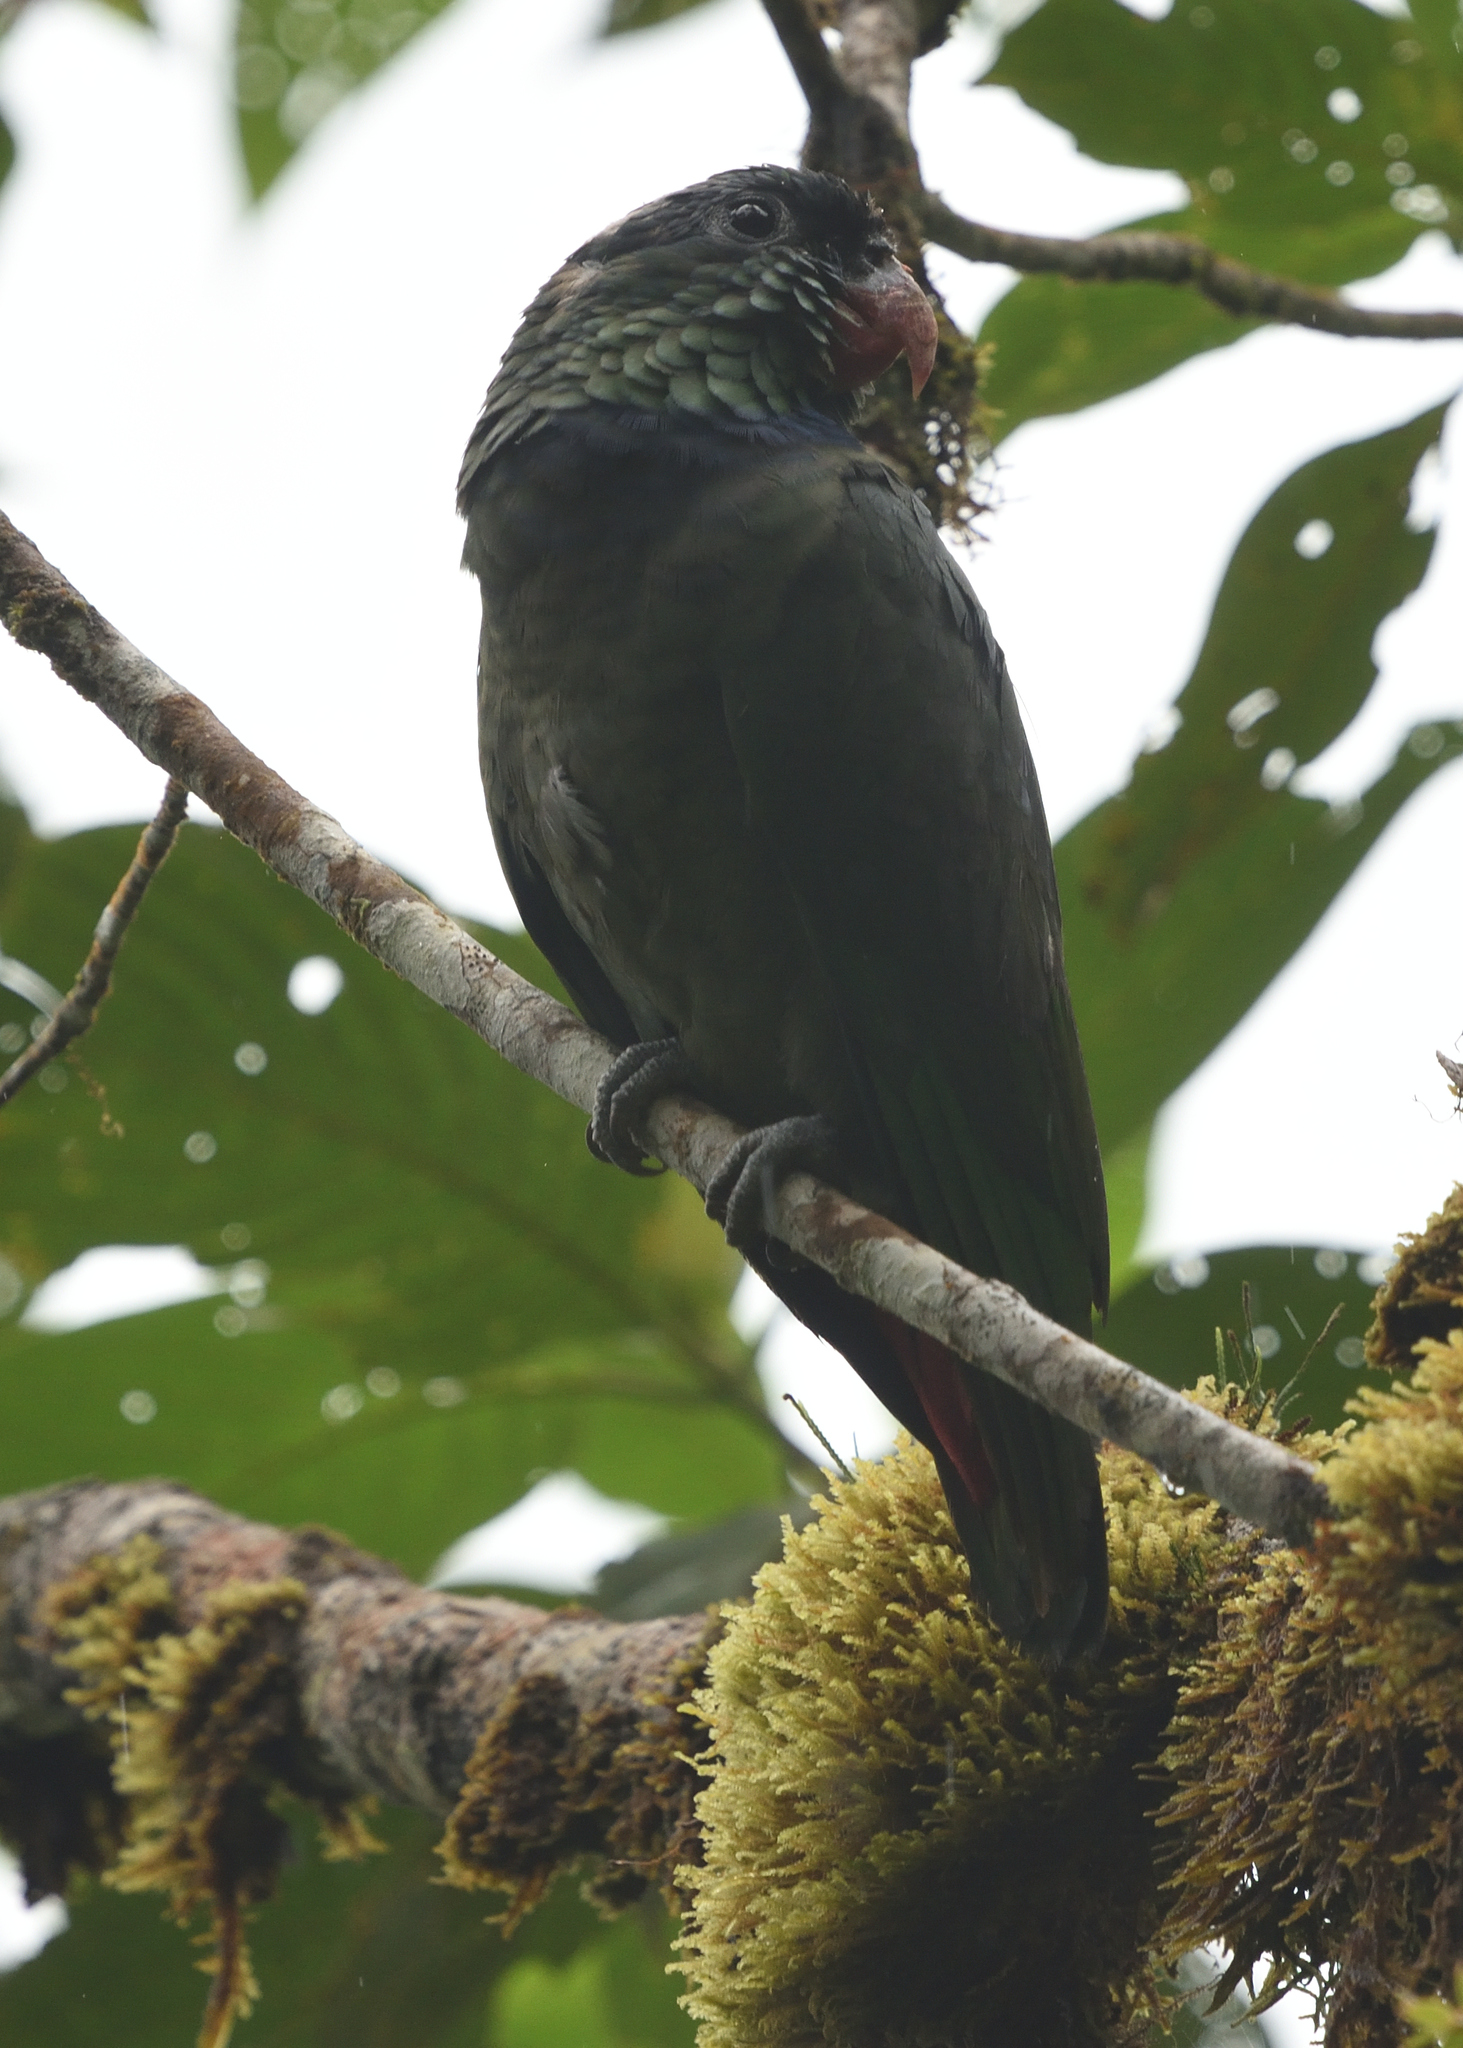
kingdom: Animalia
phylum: Chordata
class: Aves
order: Psittaciformes
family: Psittacidae
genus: Pionus
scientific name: Pionus sordidus
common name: Red-billed parrot
